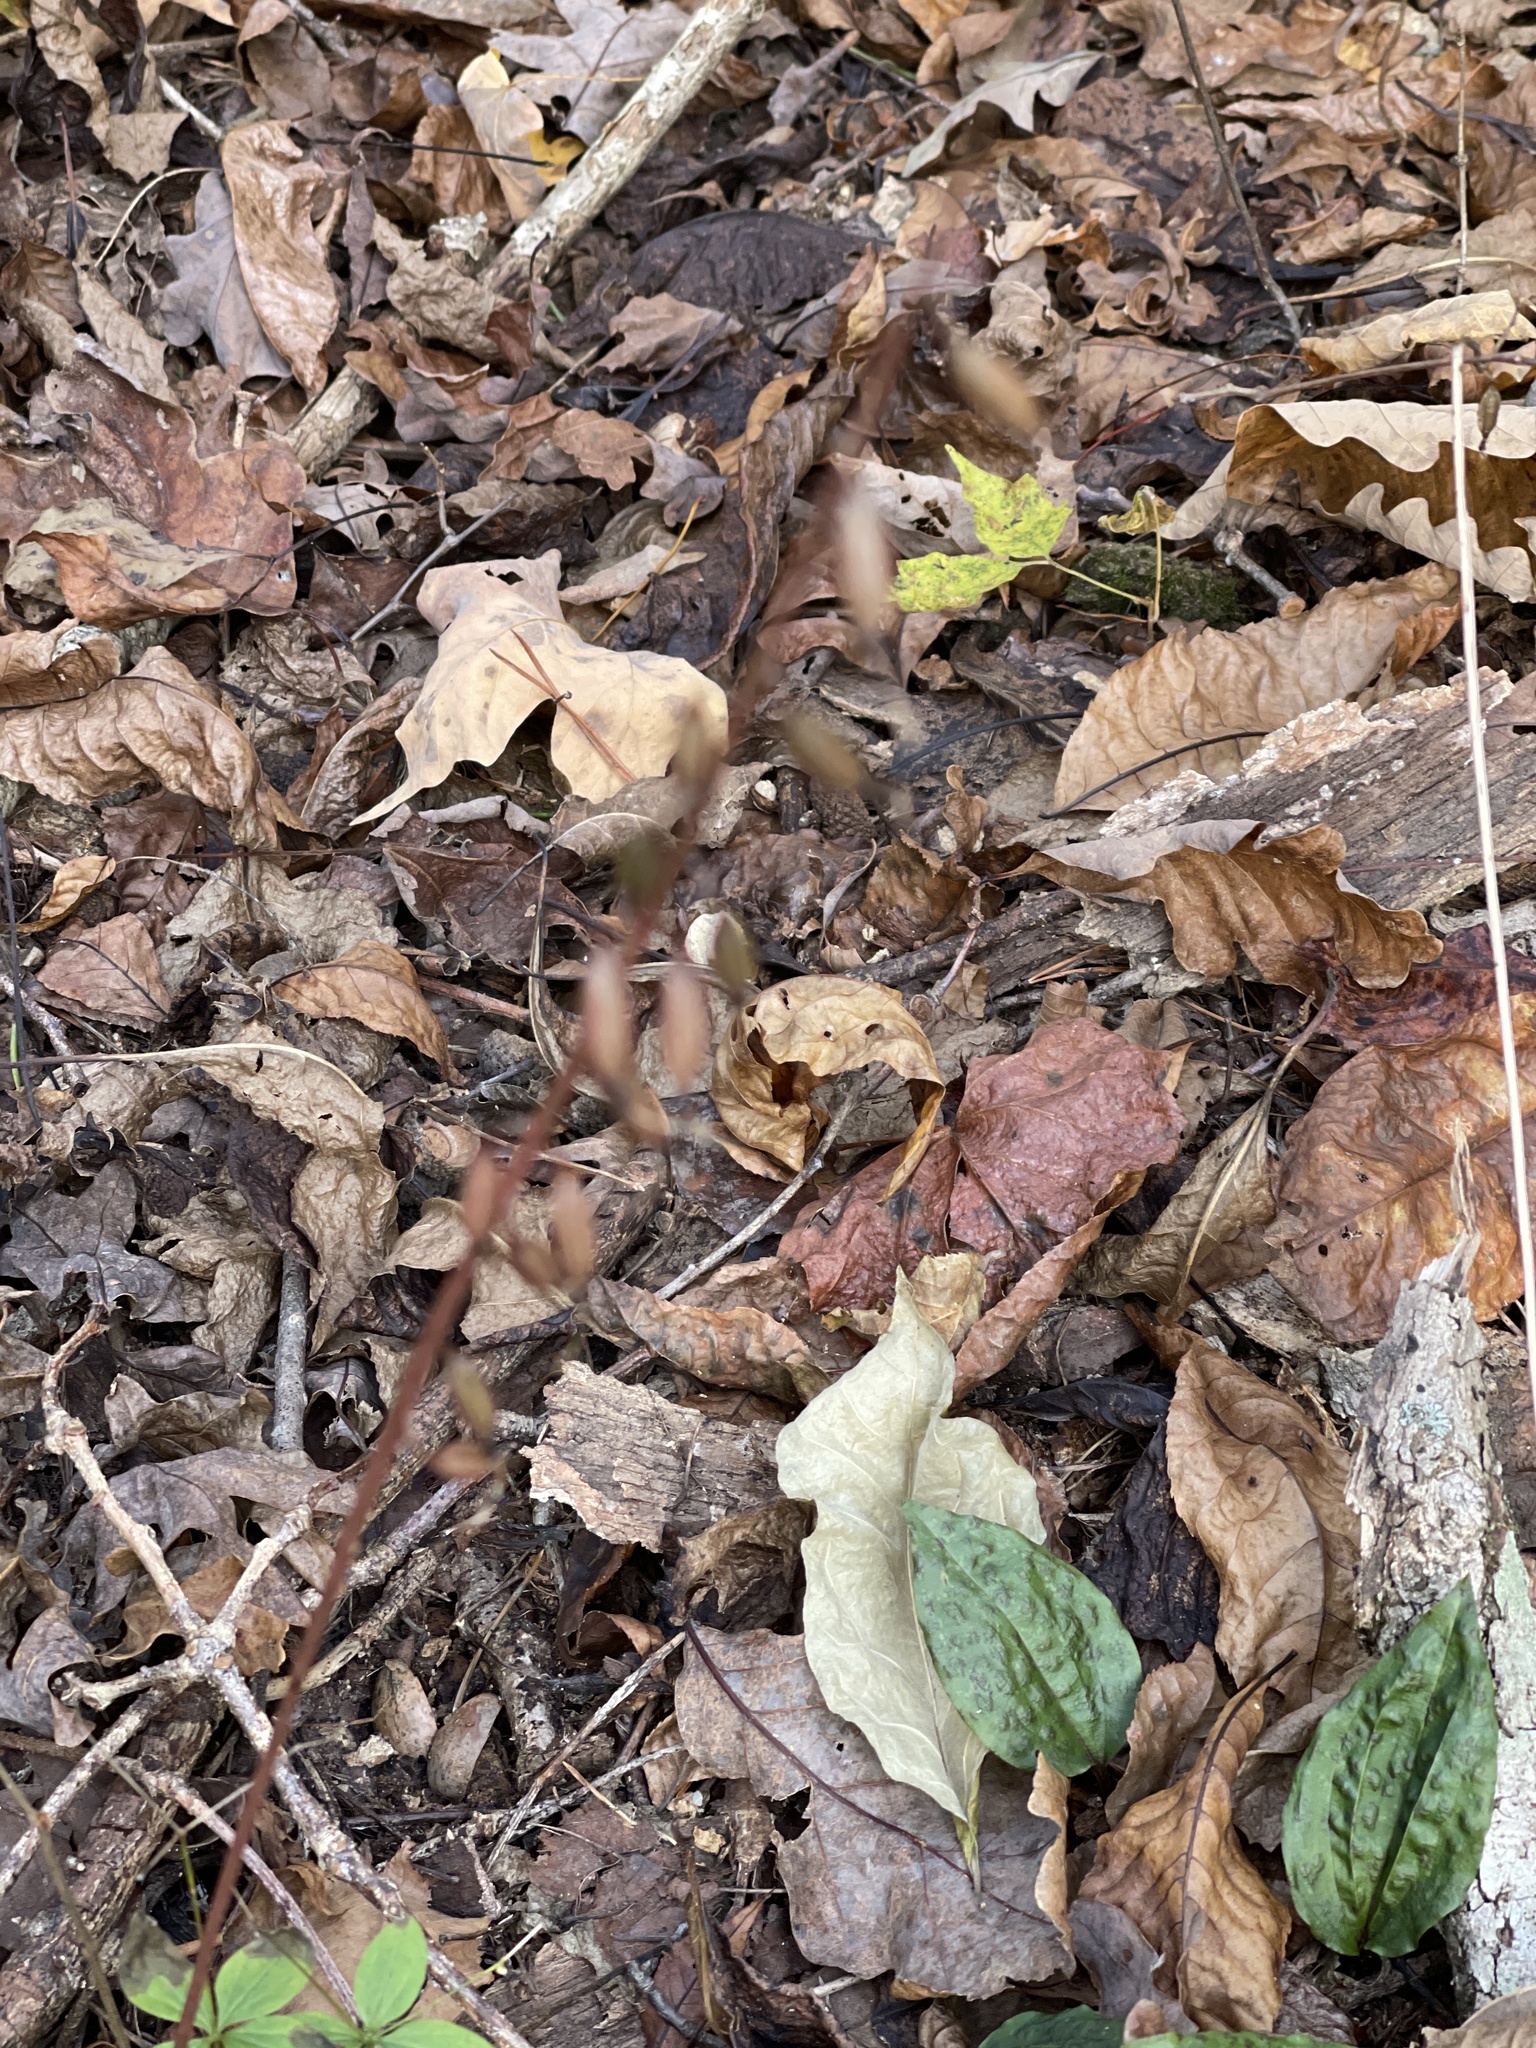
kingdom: Plantae
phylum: Tracheophyta
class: Liliopsida
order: Asparagales
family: Orchidaceae
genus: Tipularia
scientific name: Tipularia discolor
